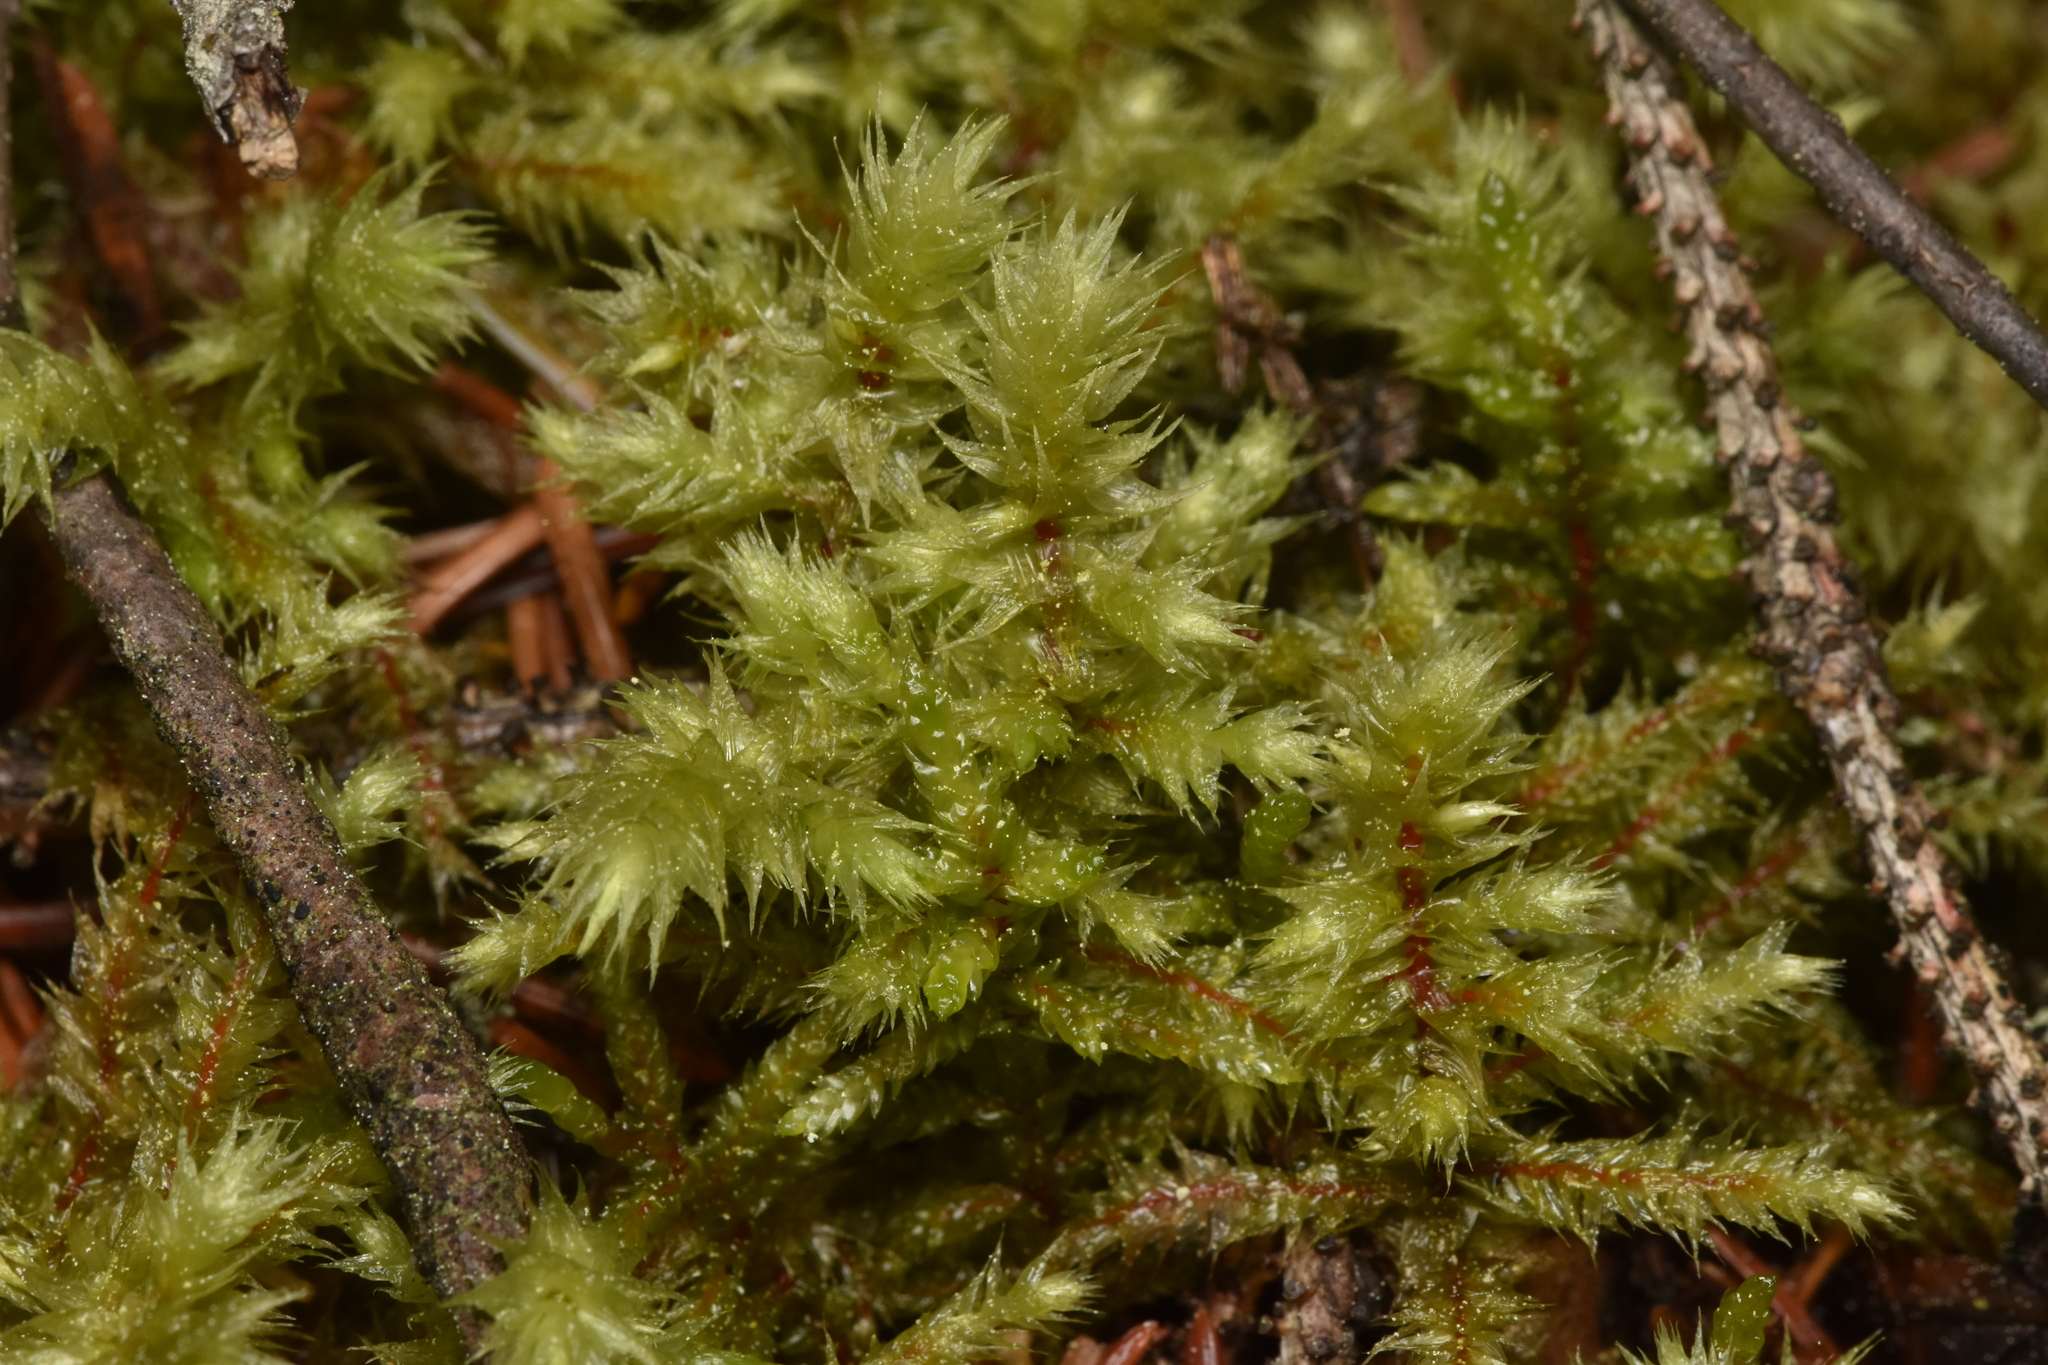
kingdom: Plantae
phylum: Bryophyta
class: Bryopsida
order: Hypnales
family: Hylocomiaceae
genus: Hylocomiadelphus
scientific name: Hylocomiadelphus triquetrus
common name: Rough goose neck moss
